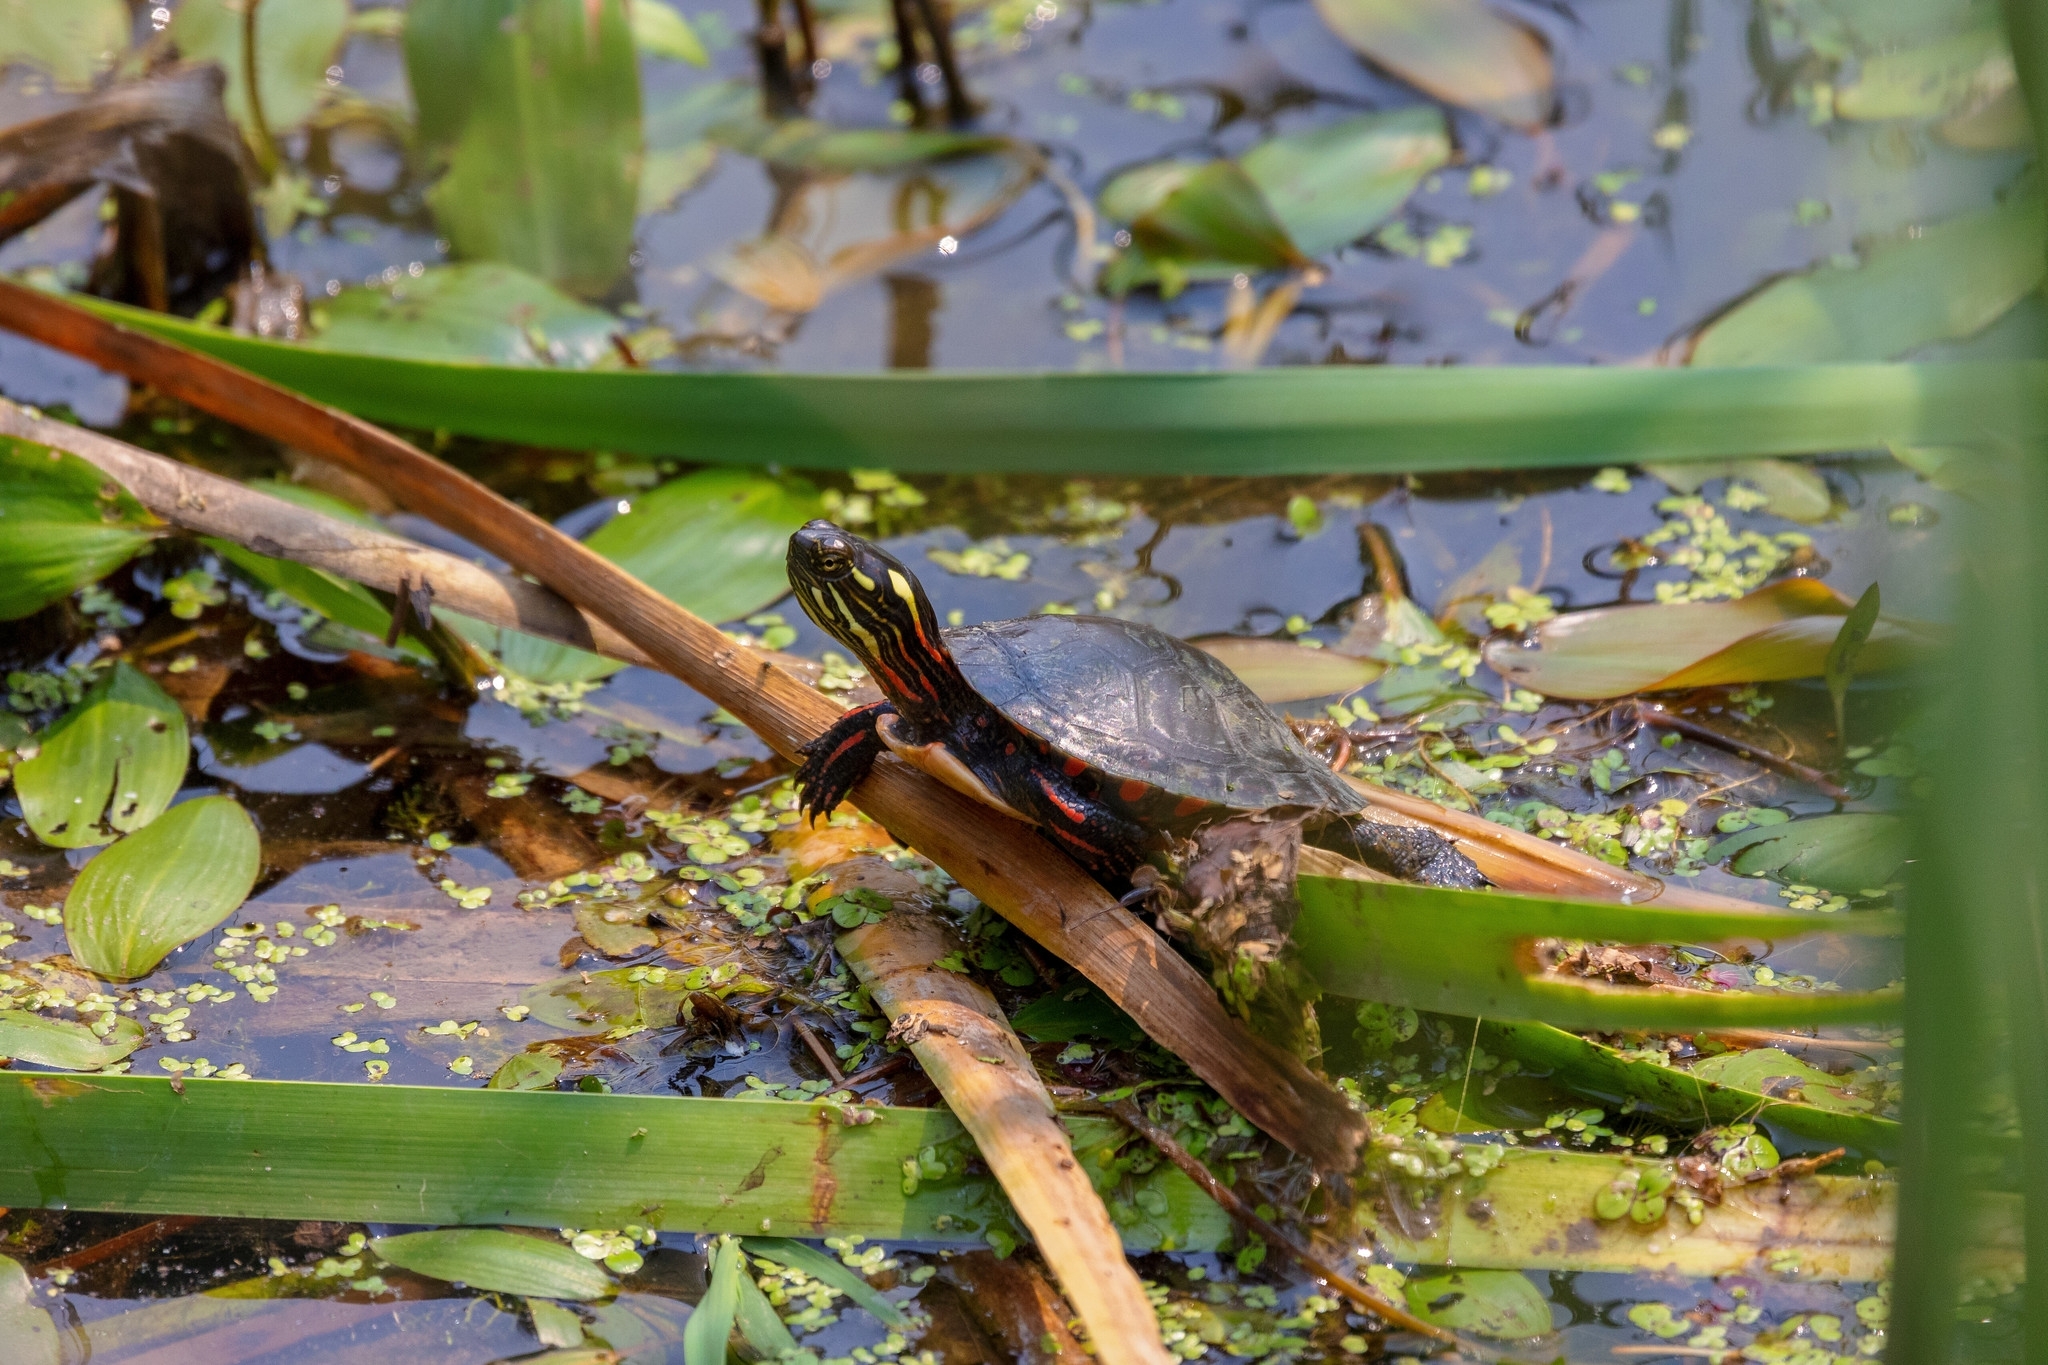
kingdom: Animalia
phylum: Chordata
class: Testudines
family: Emydidae
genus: Chrysemys
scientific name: Chrysemys picta
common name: Painted turtle
